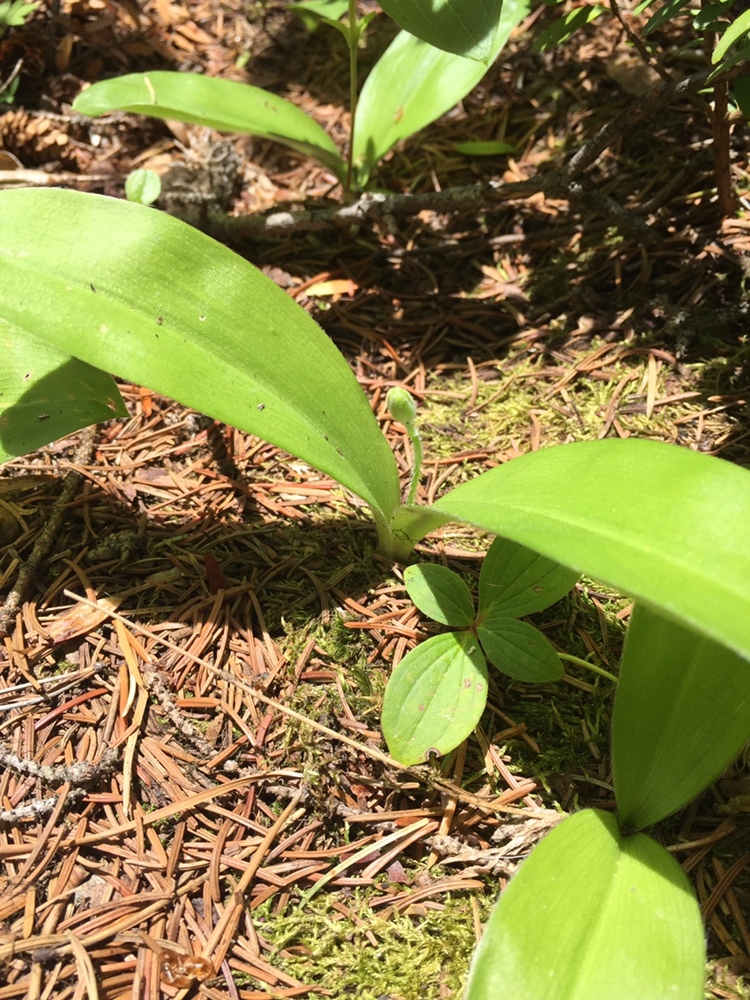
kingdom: Plantae
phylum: Tracheophyta
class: Liliopsida
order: Liliales
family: Liliaceae
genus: Clintonia
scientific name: Clintonia uniflora
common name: Queen's cup
